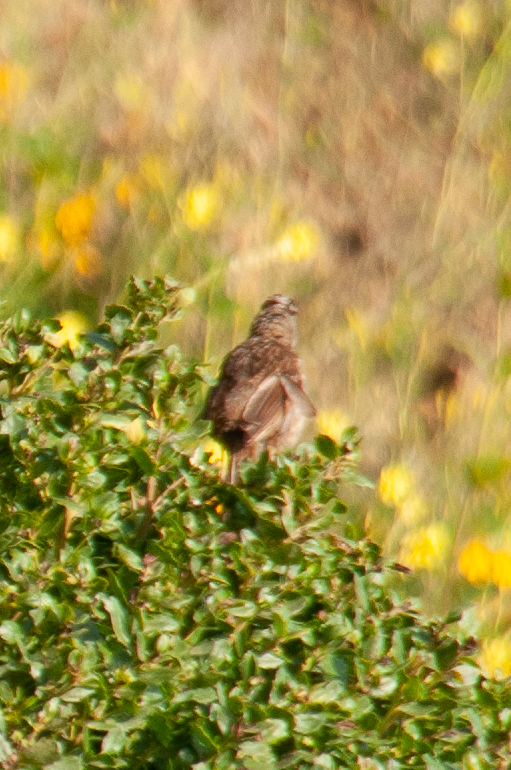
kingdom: Animalia
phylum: Chordata
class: Aves
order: Passeriformes
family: Passerellidae
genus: Zonotrichia
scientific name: Zonotrichia leucophrys
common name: White-crowned sparrow
